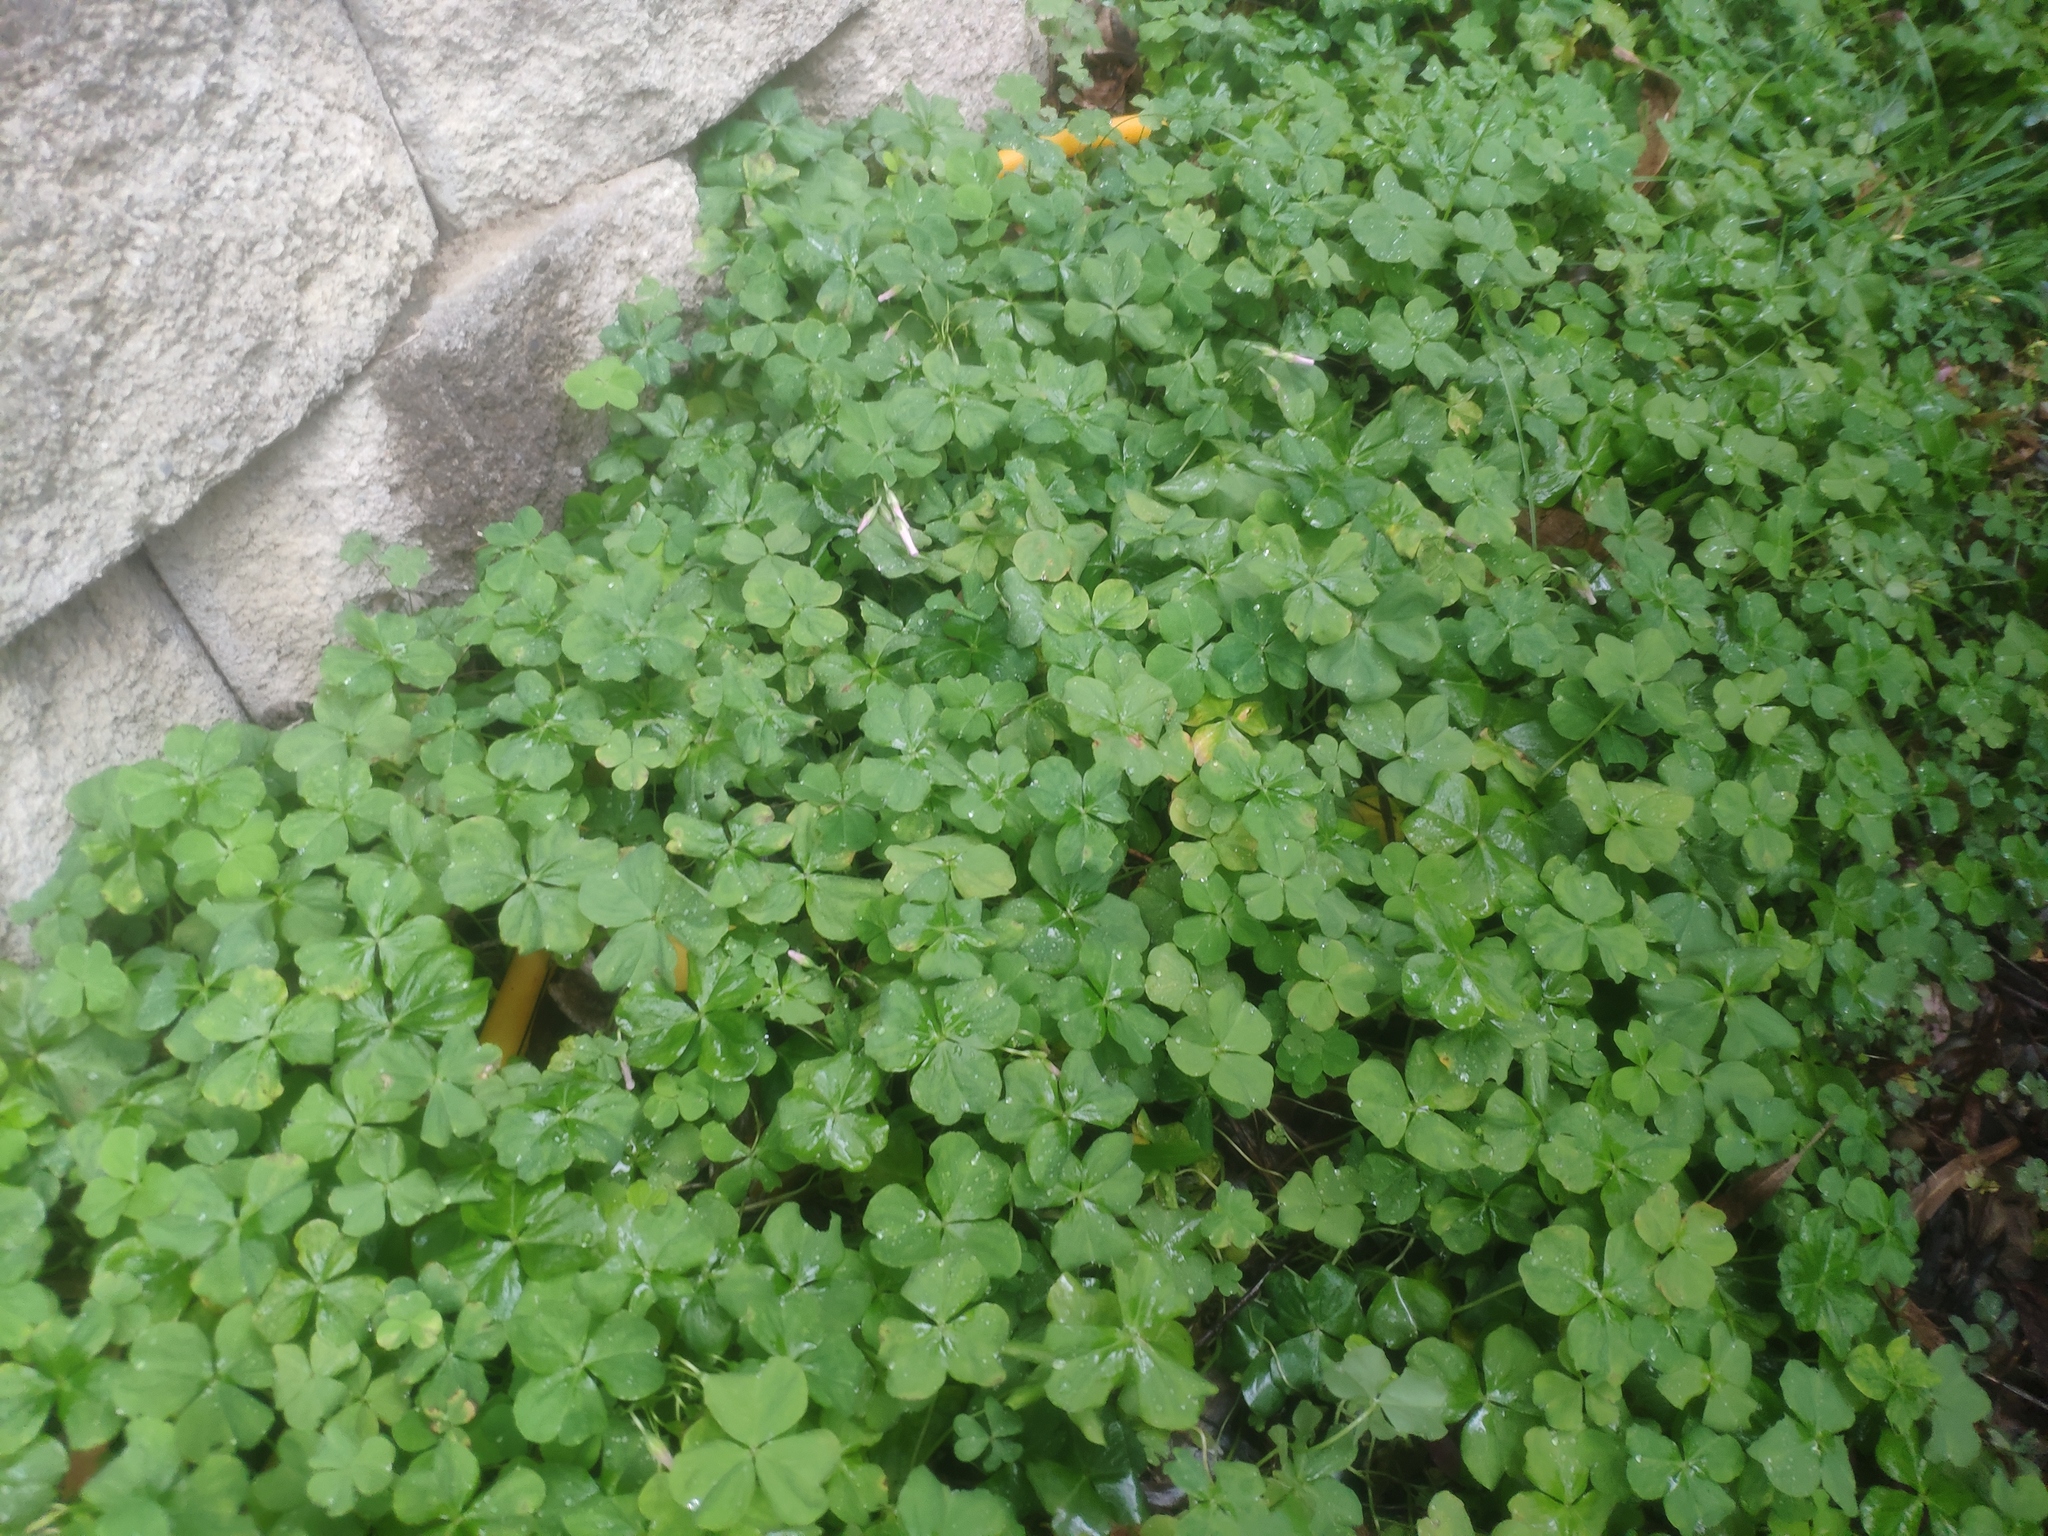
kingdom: Plantae
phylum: Tracheophyta
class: Magnoliopsida
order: Oxalidales
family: Oxalidaceae
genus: Oxalis
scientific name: Oxalis corniculata
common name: Procumbent yellow-sorrel
